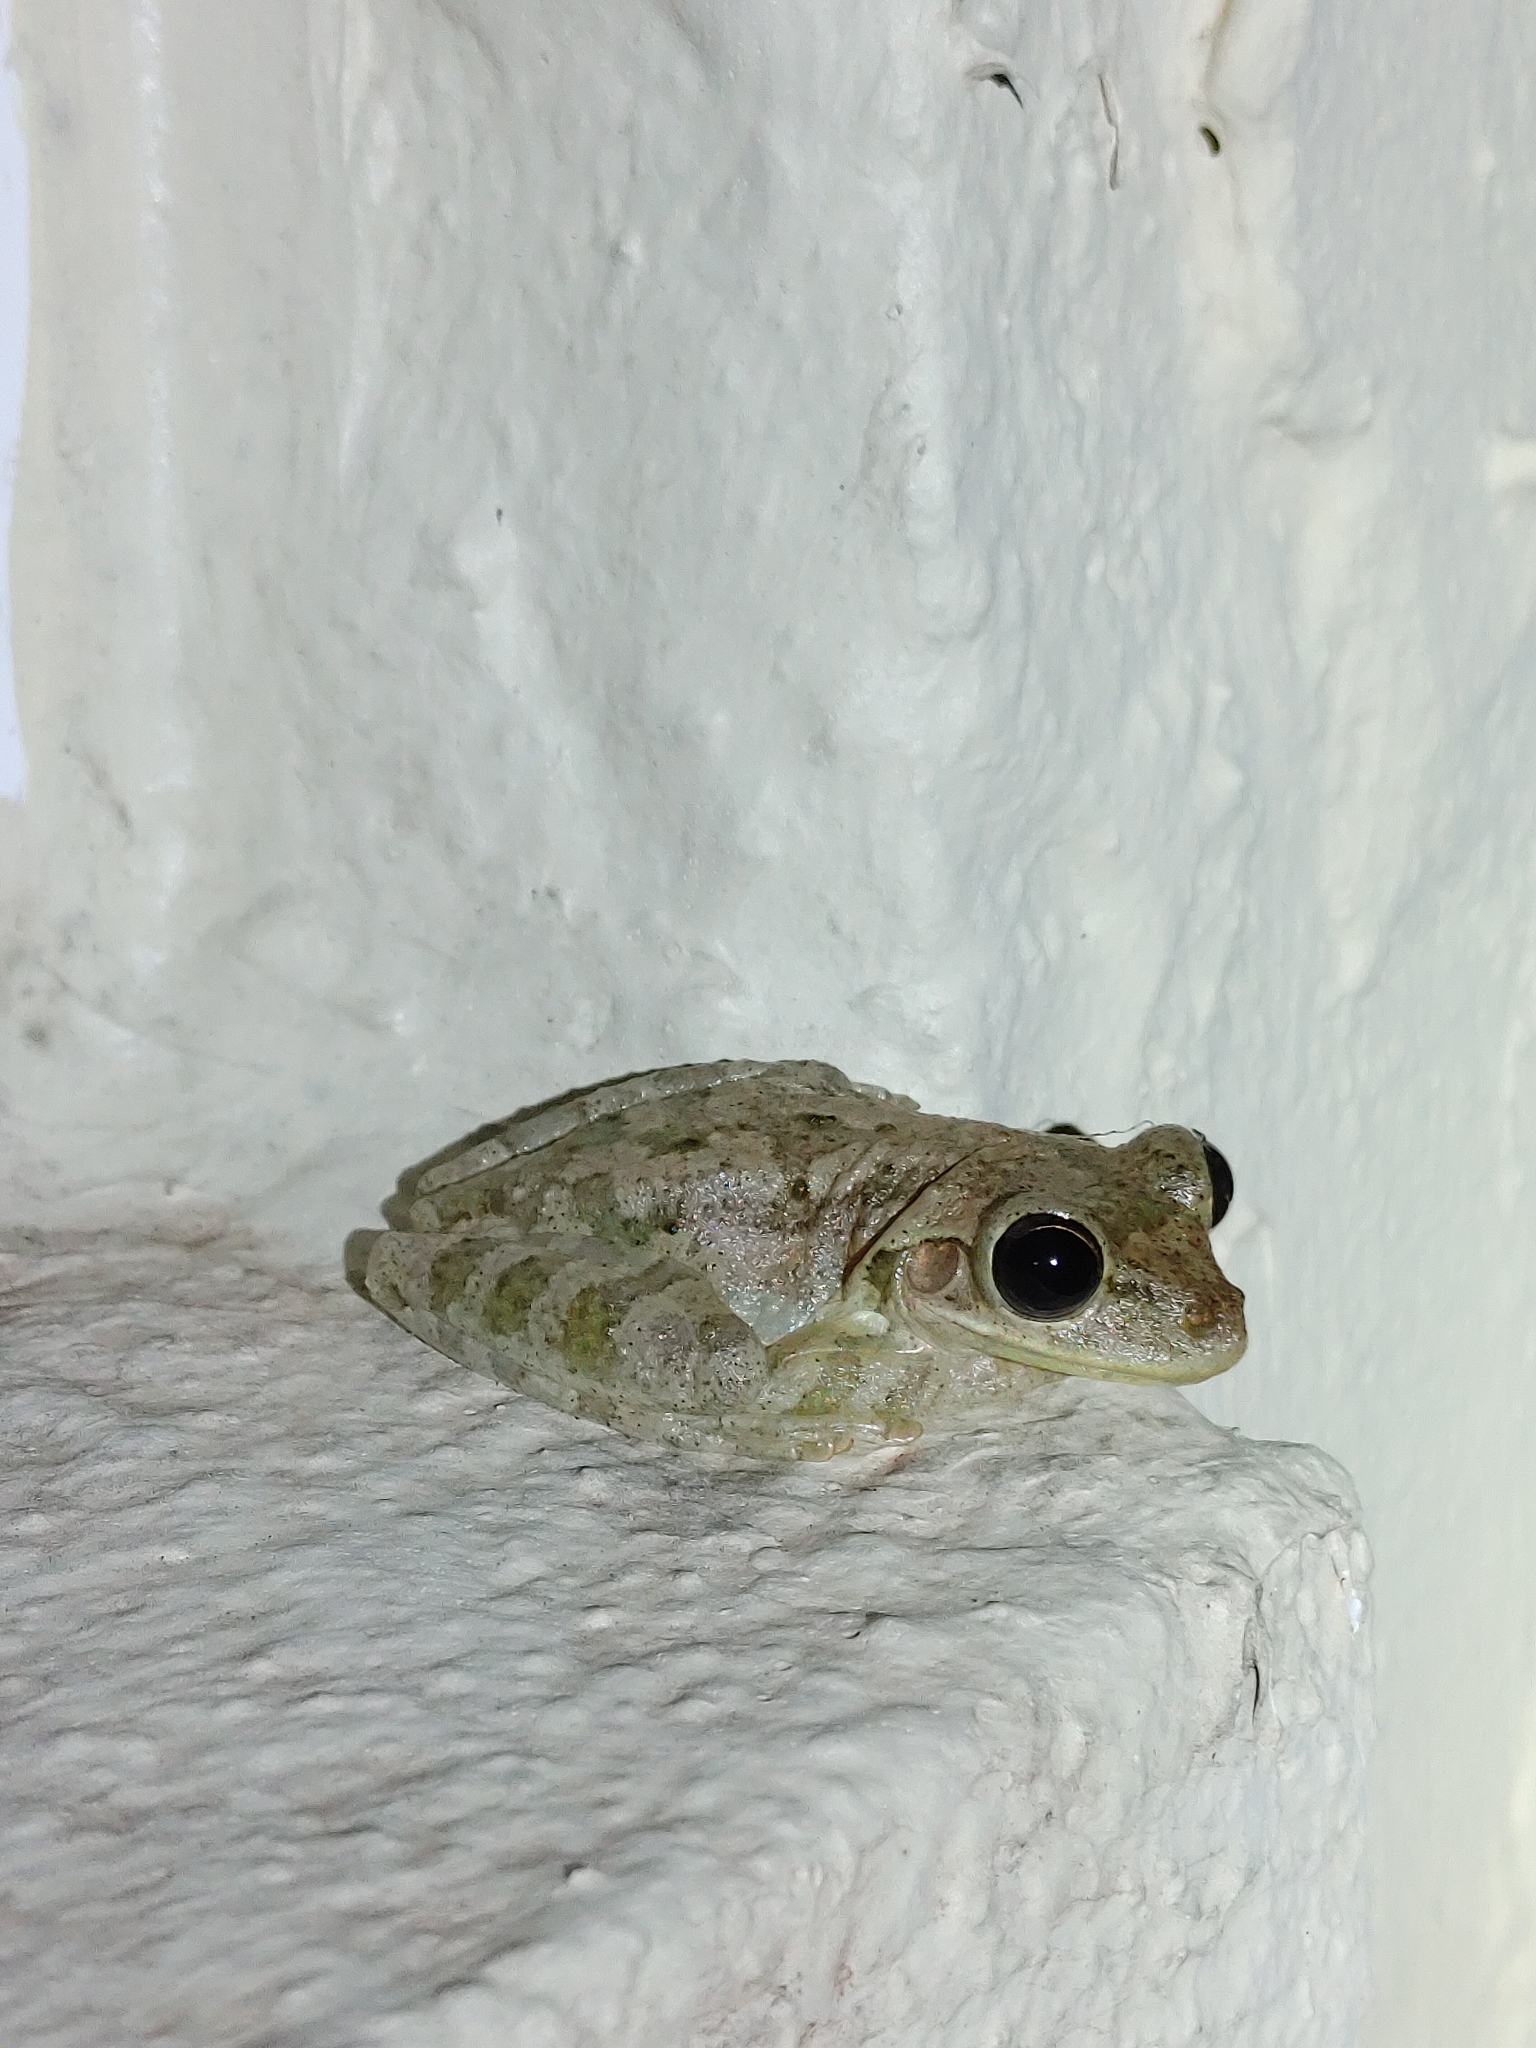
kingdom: Animalia
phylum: Chordata
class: Amphibia
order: Anura
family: Hylidae
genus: Osteopilus
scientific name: Osteopilus septentrionalis
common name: Cuban treefrog
